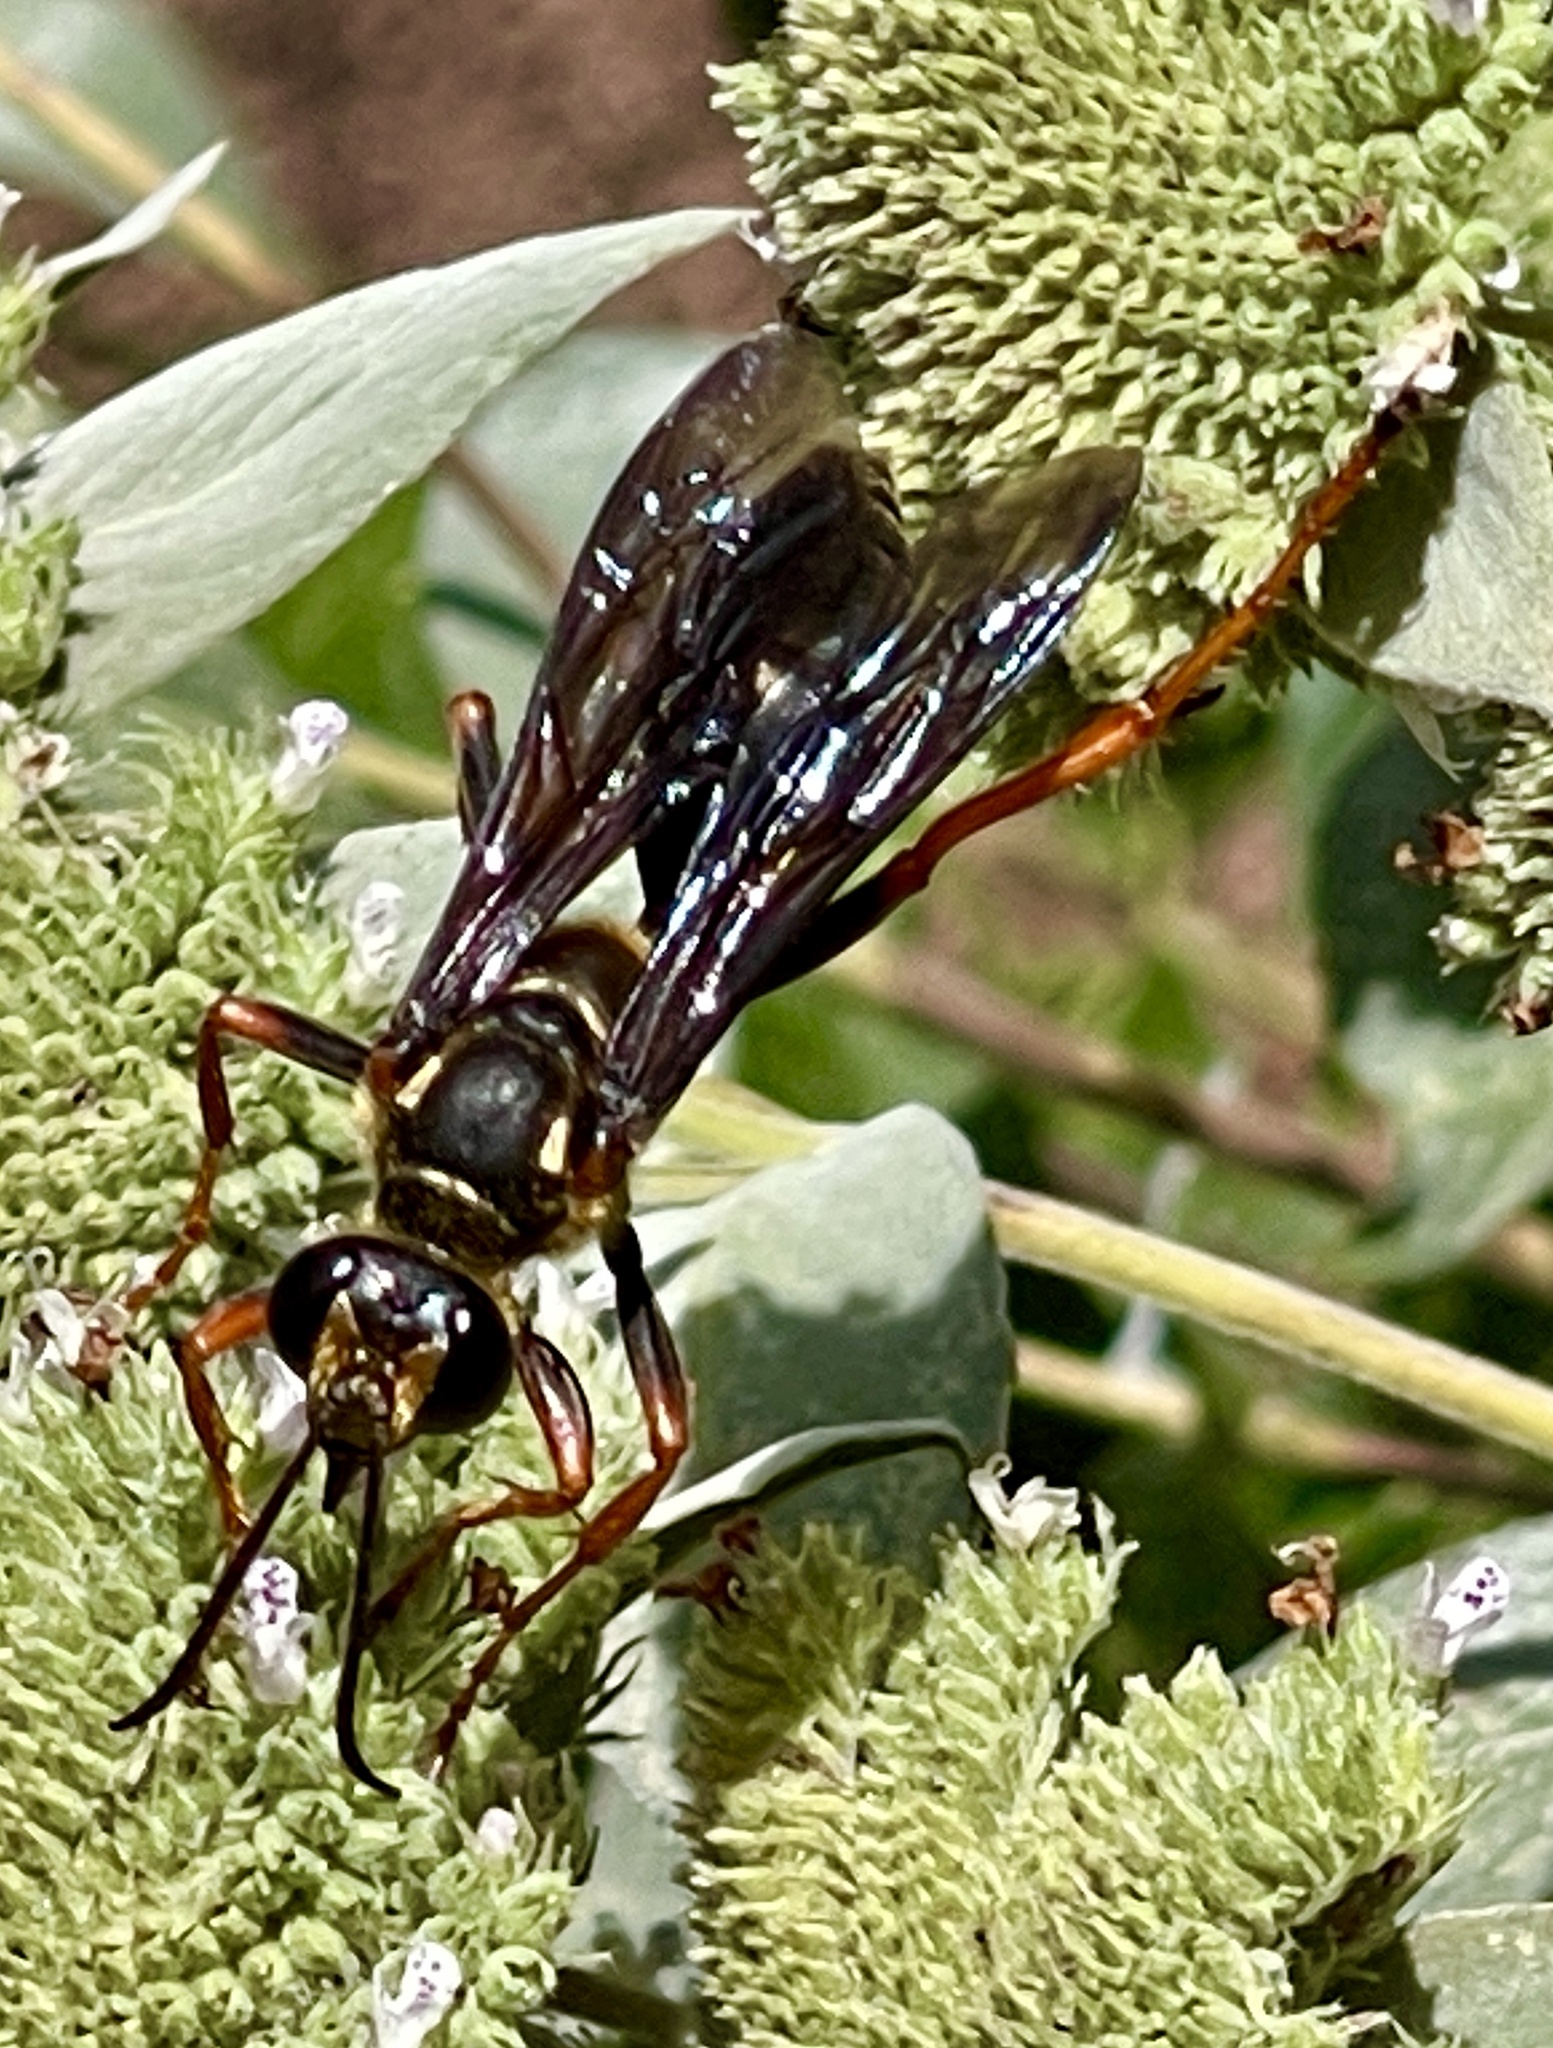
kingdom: Animalia
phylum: Arthropoda
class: Insecta
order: Hymenoptera
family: Sphecidae
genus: Sphex
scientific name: Sphex flavovestitus
